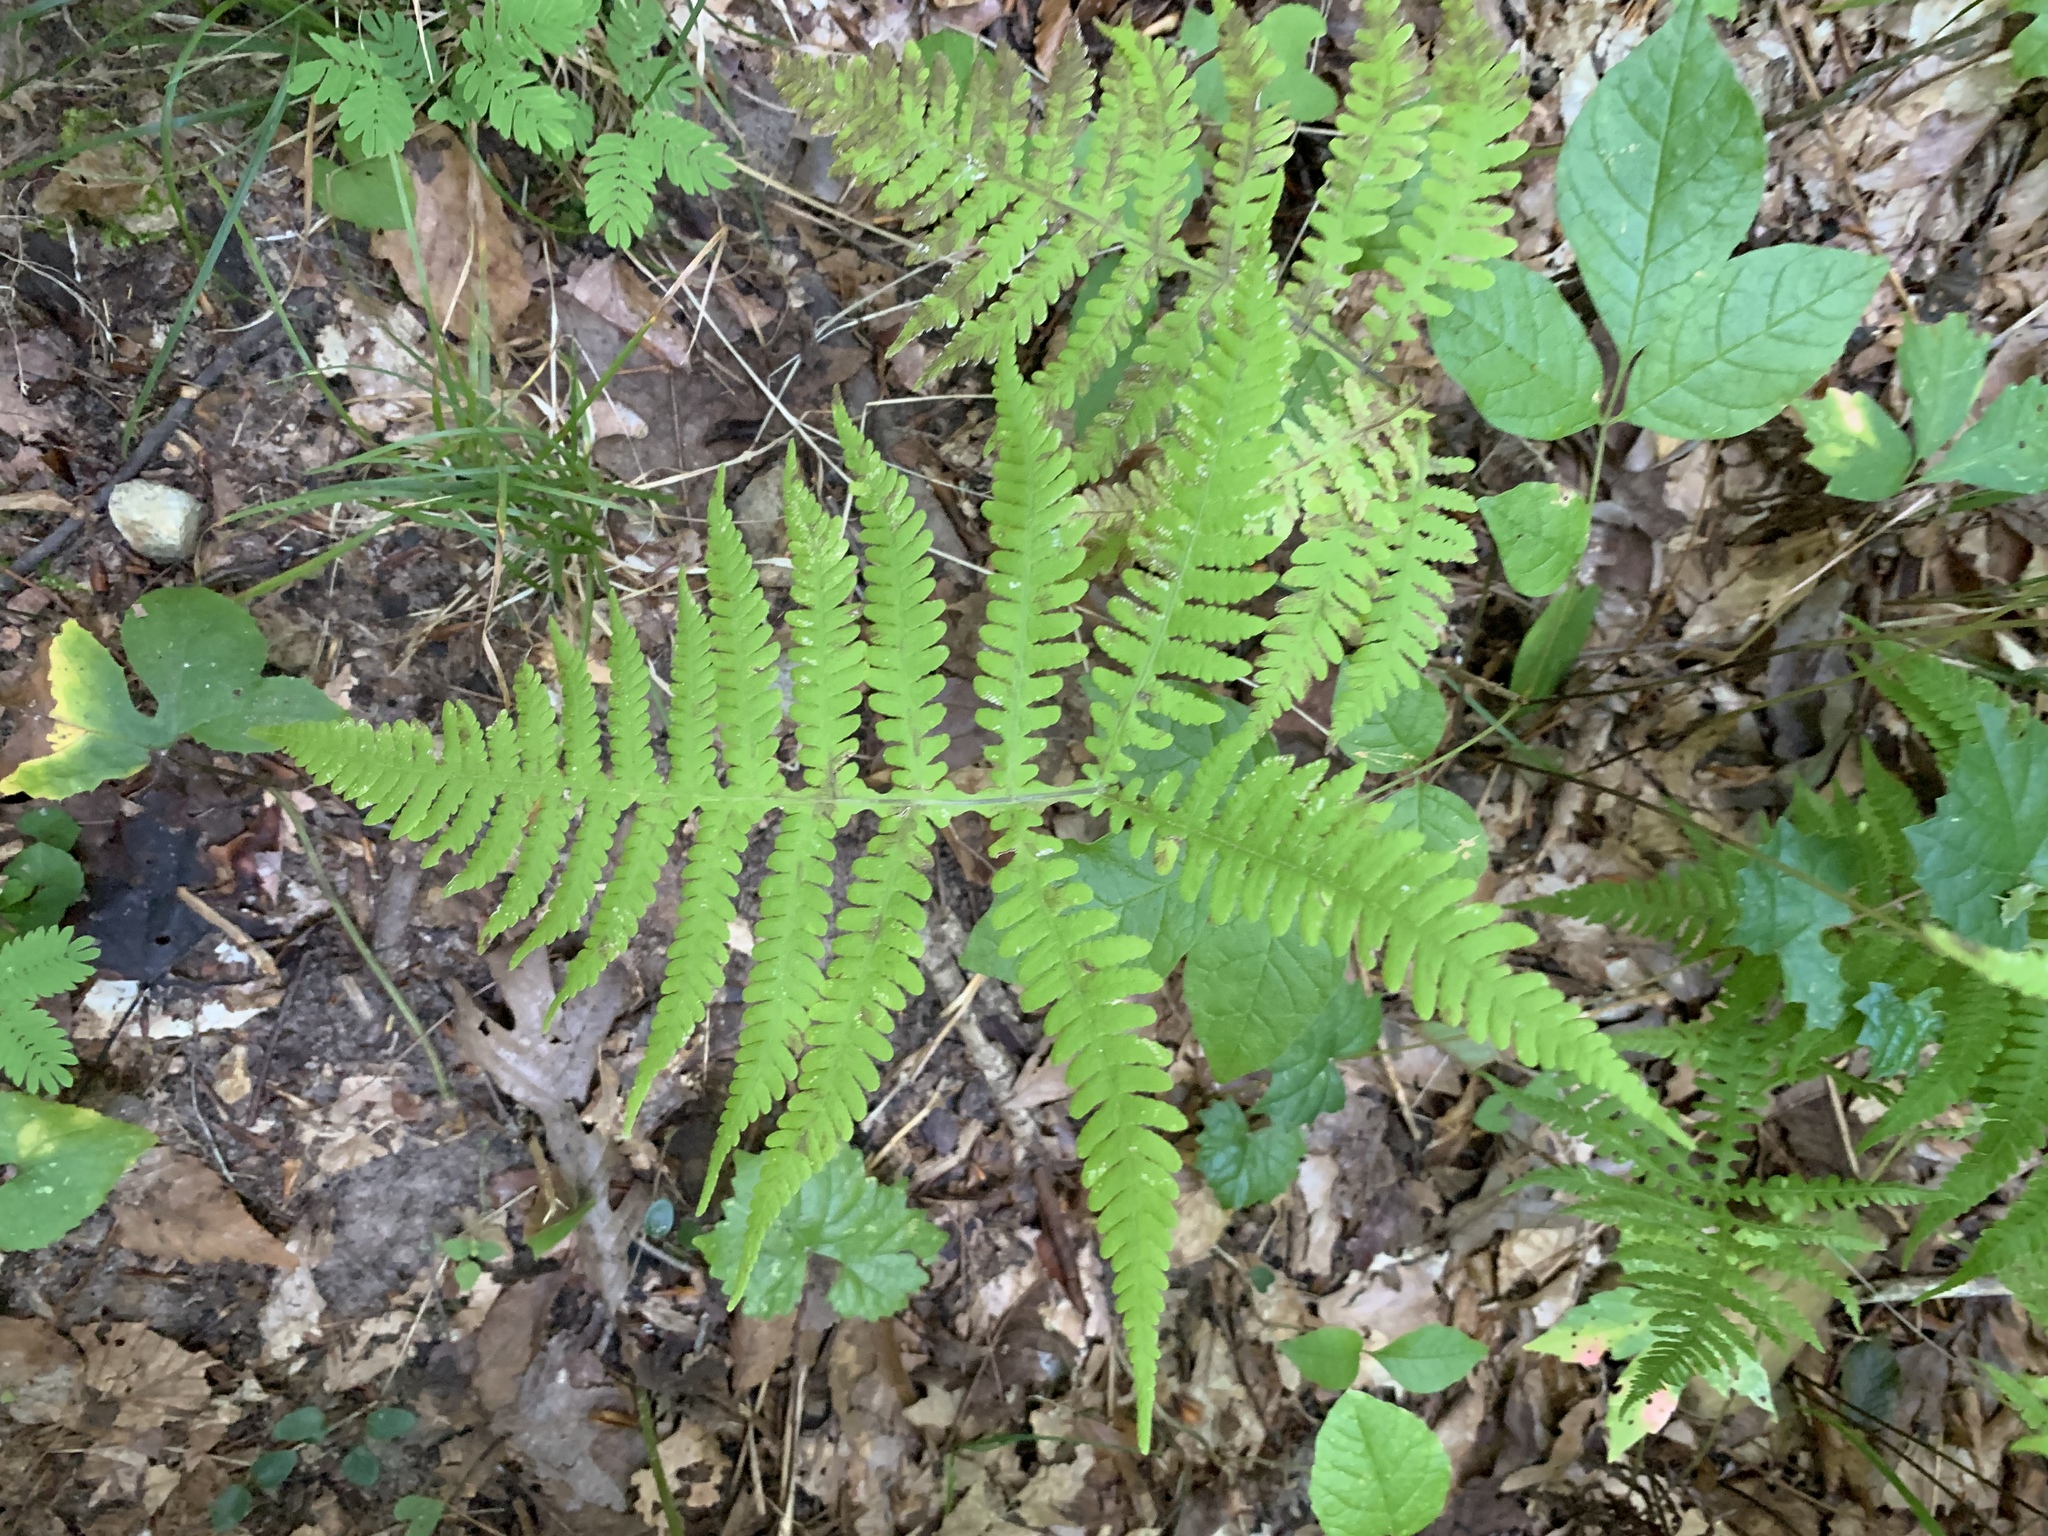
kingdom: Plantae
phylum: Tracheophyta
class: Polypodiopsida
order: Polypodiales
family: Thelypteridaceae
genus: Phegopteris
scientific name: Phegopteris hexagonoptera
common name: Broad beech fern
